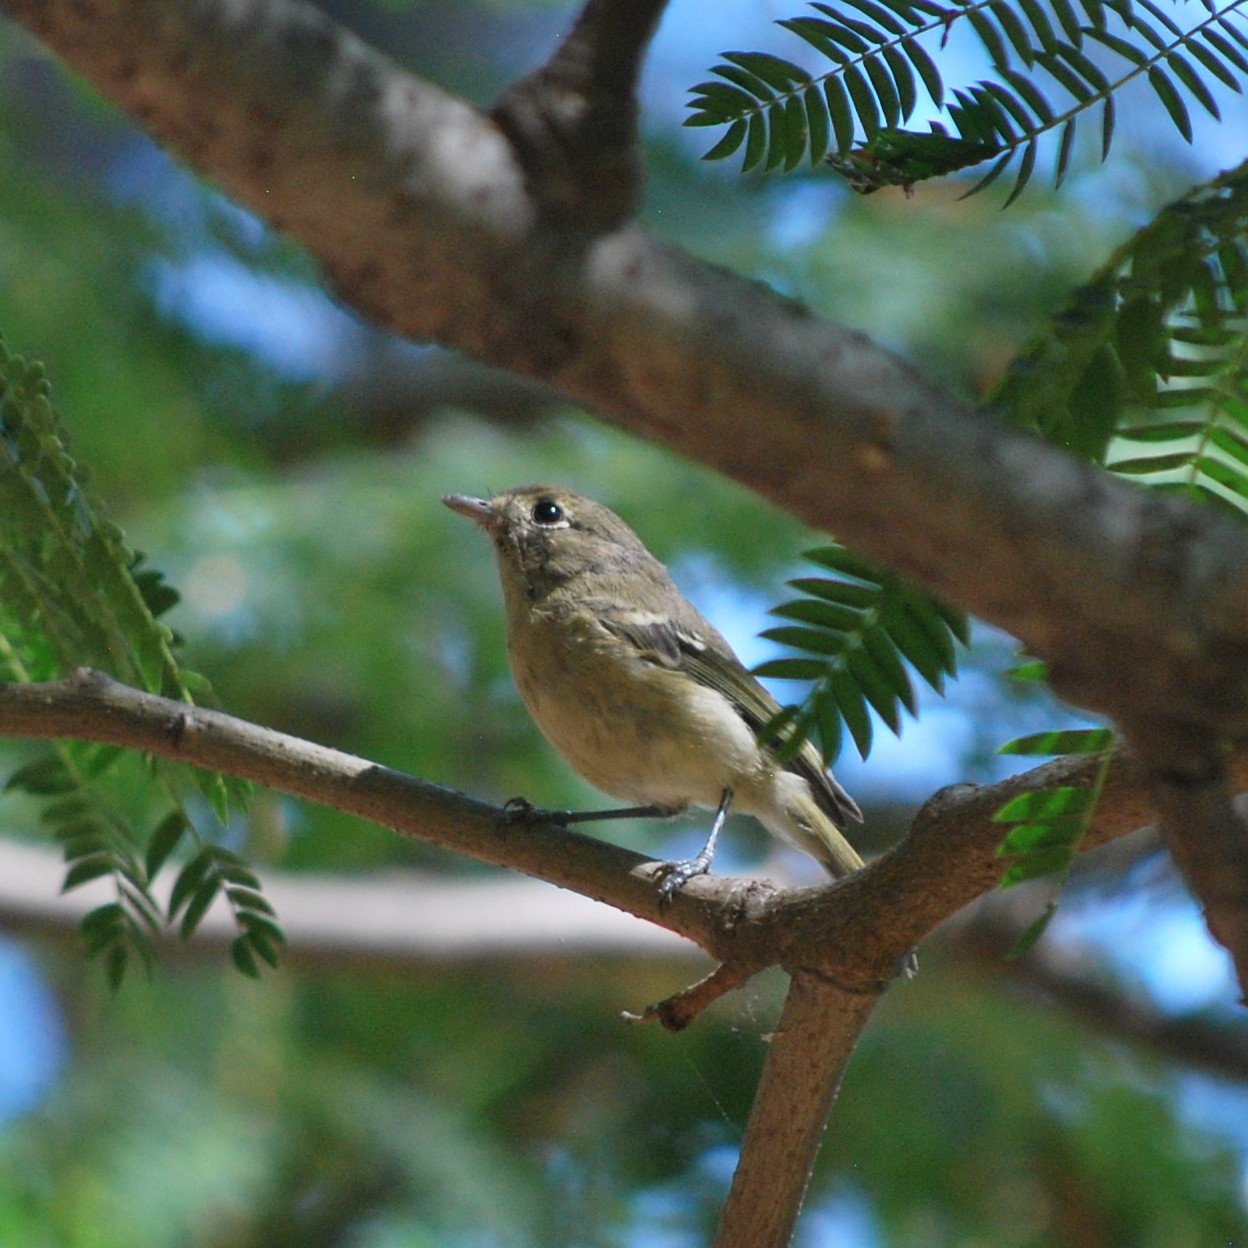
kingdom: Animalia
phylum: Chordata
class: Aves
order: Passeriformes
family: Vireonidae
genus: Vireo
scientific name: Vireo huttoni
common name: Hutton's vireo
